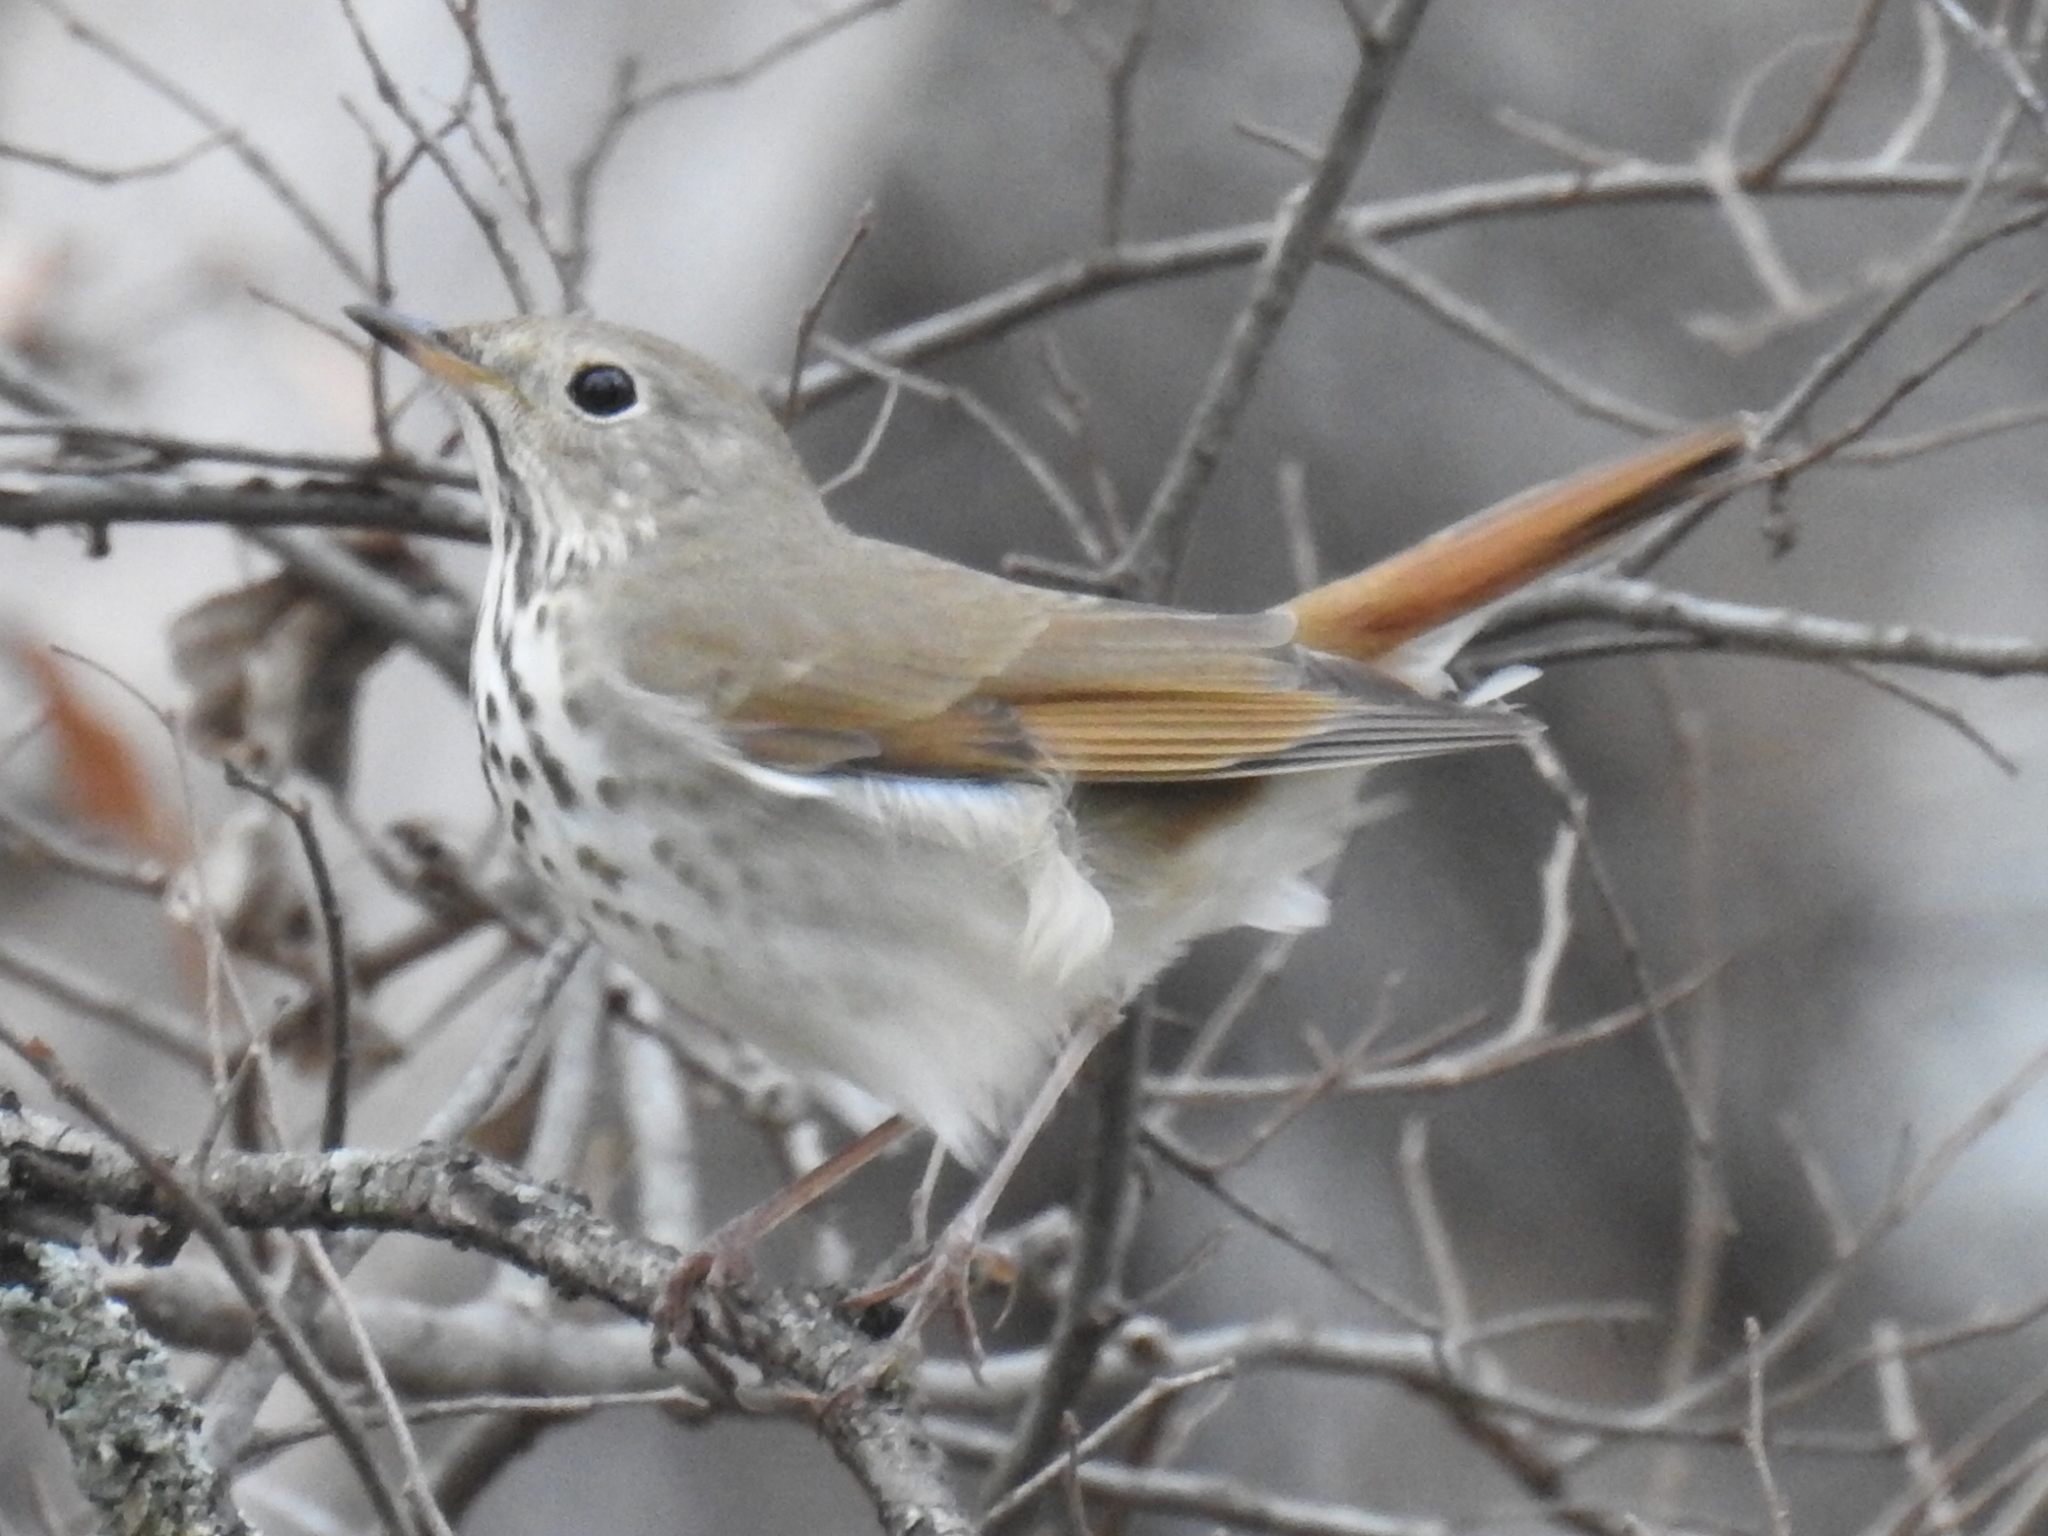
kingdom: Animalia
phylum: Chordata
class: Aves
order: Passeriformes
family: Turdidae
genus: Catharus
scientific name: Catharus guttatus
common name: Hermit thrush
